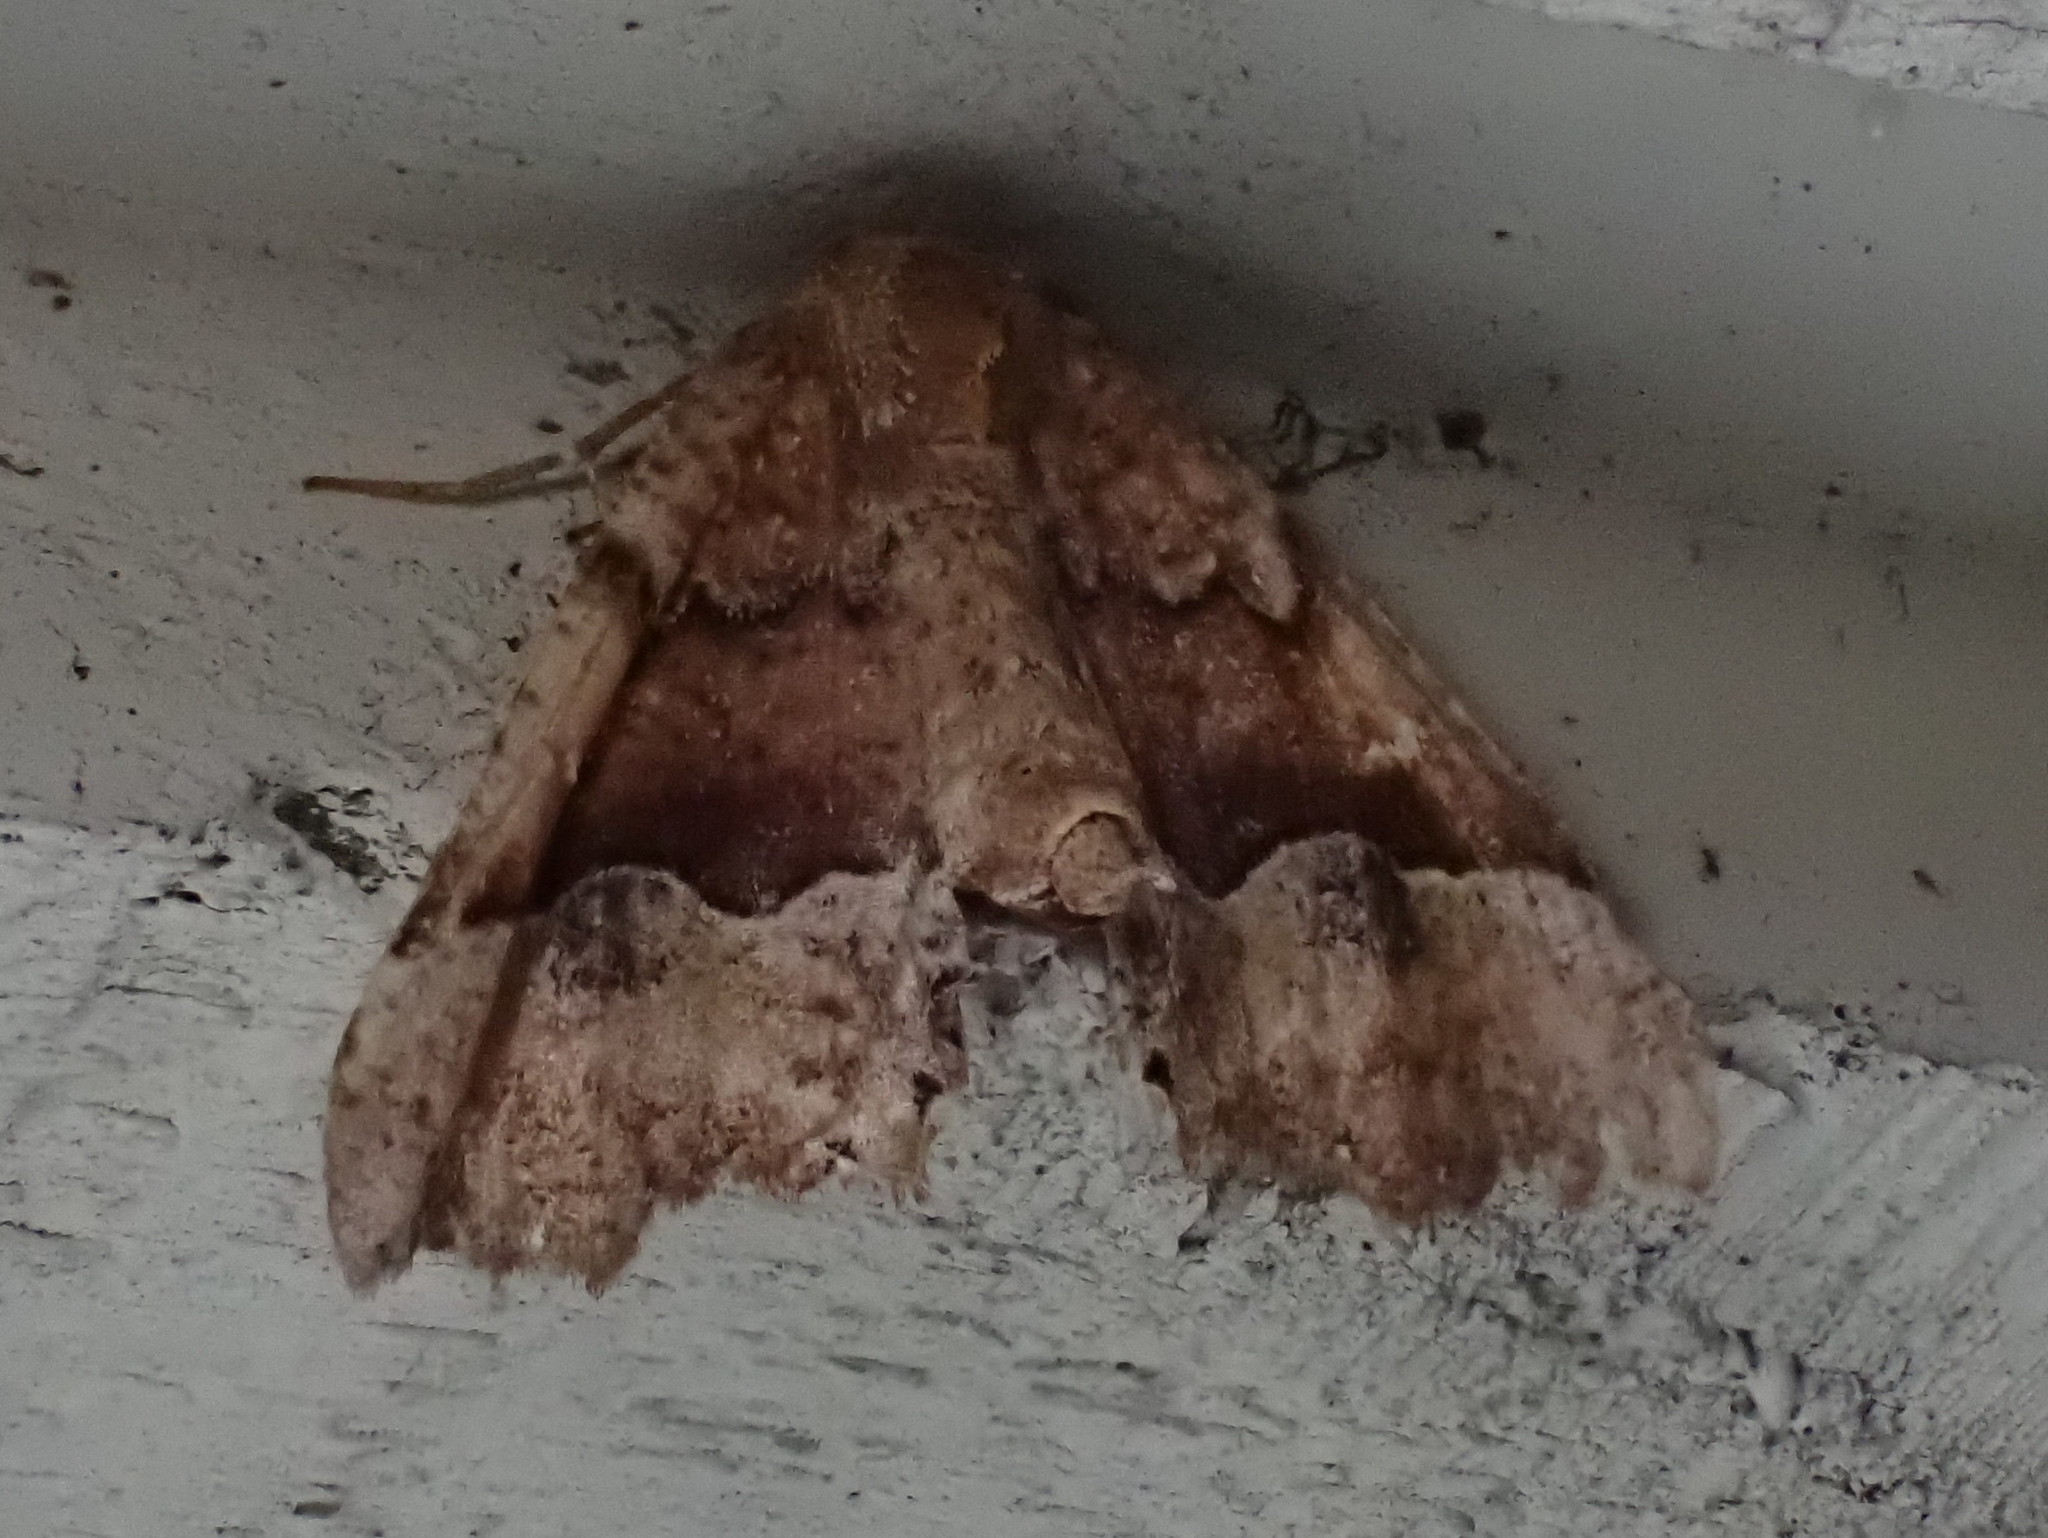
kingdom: Animalia
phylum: Arthropoda
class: Insecta
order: Lepidoptera
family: Geometridae
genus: Pero
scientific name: Pero morrisonaria
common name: Morrison's pero
